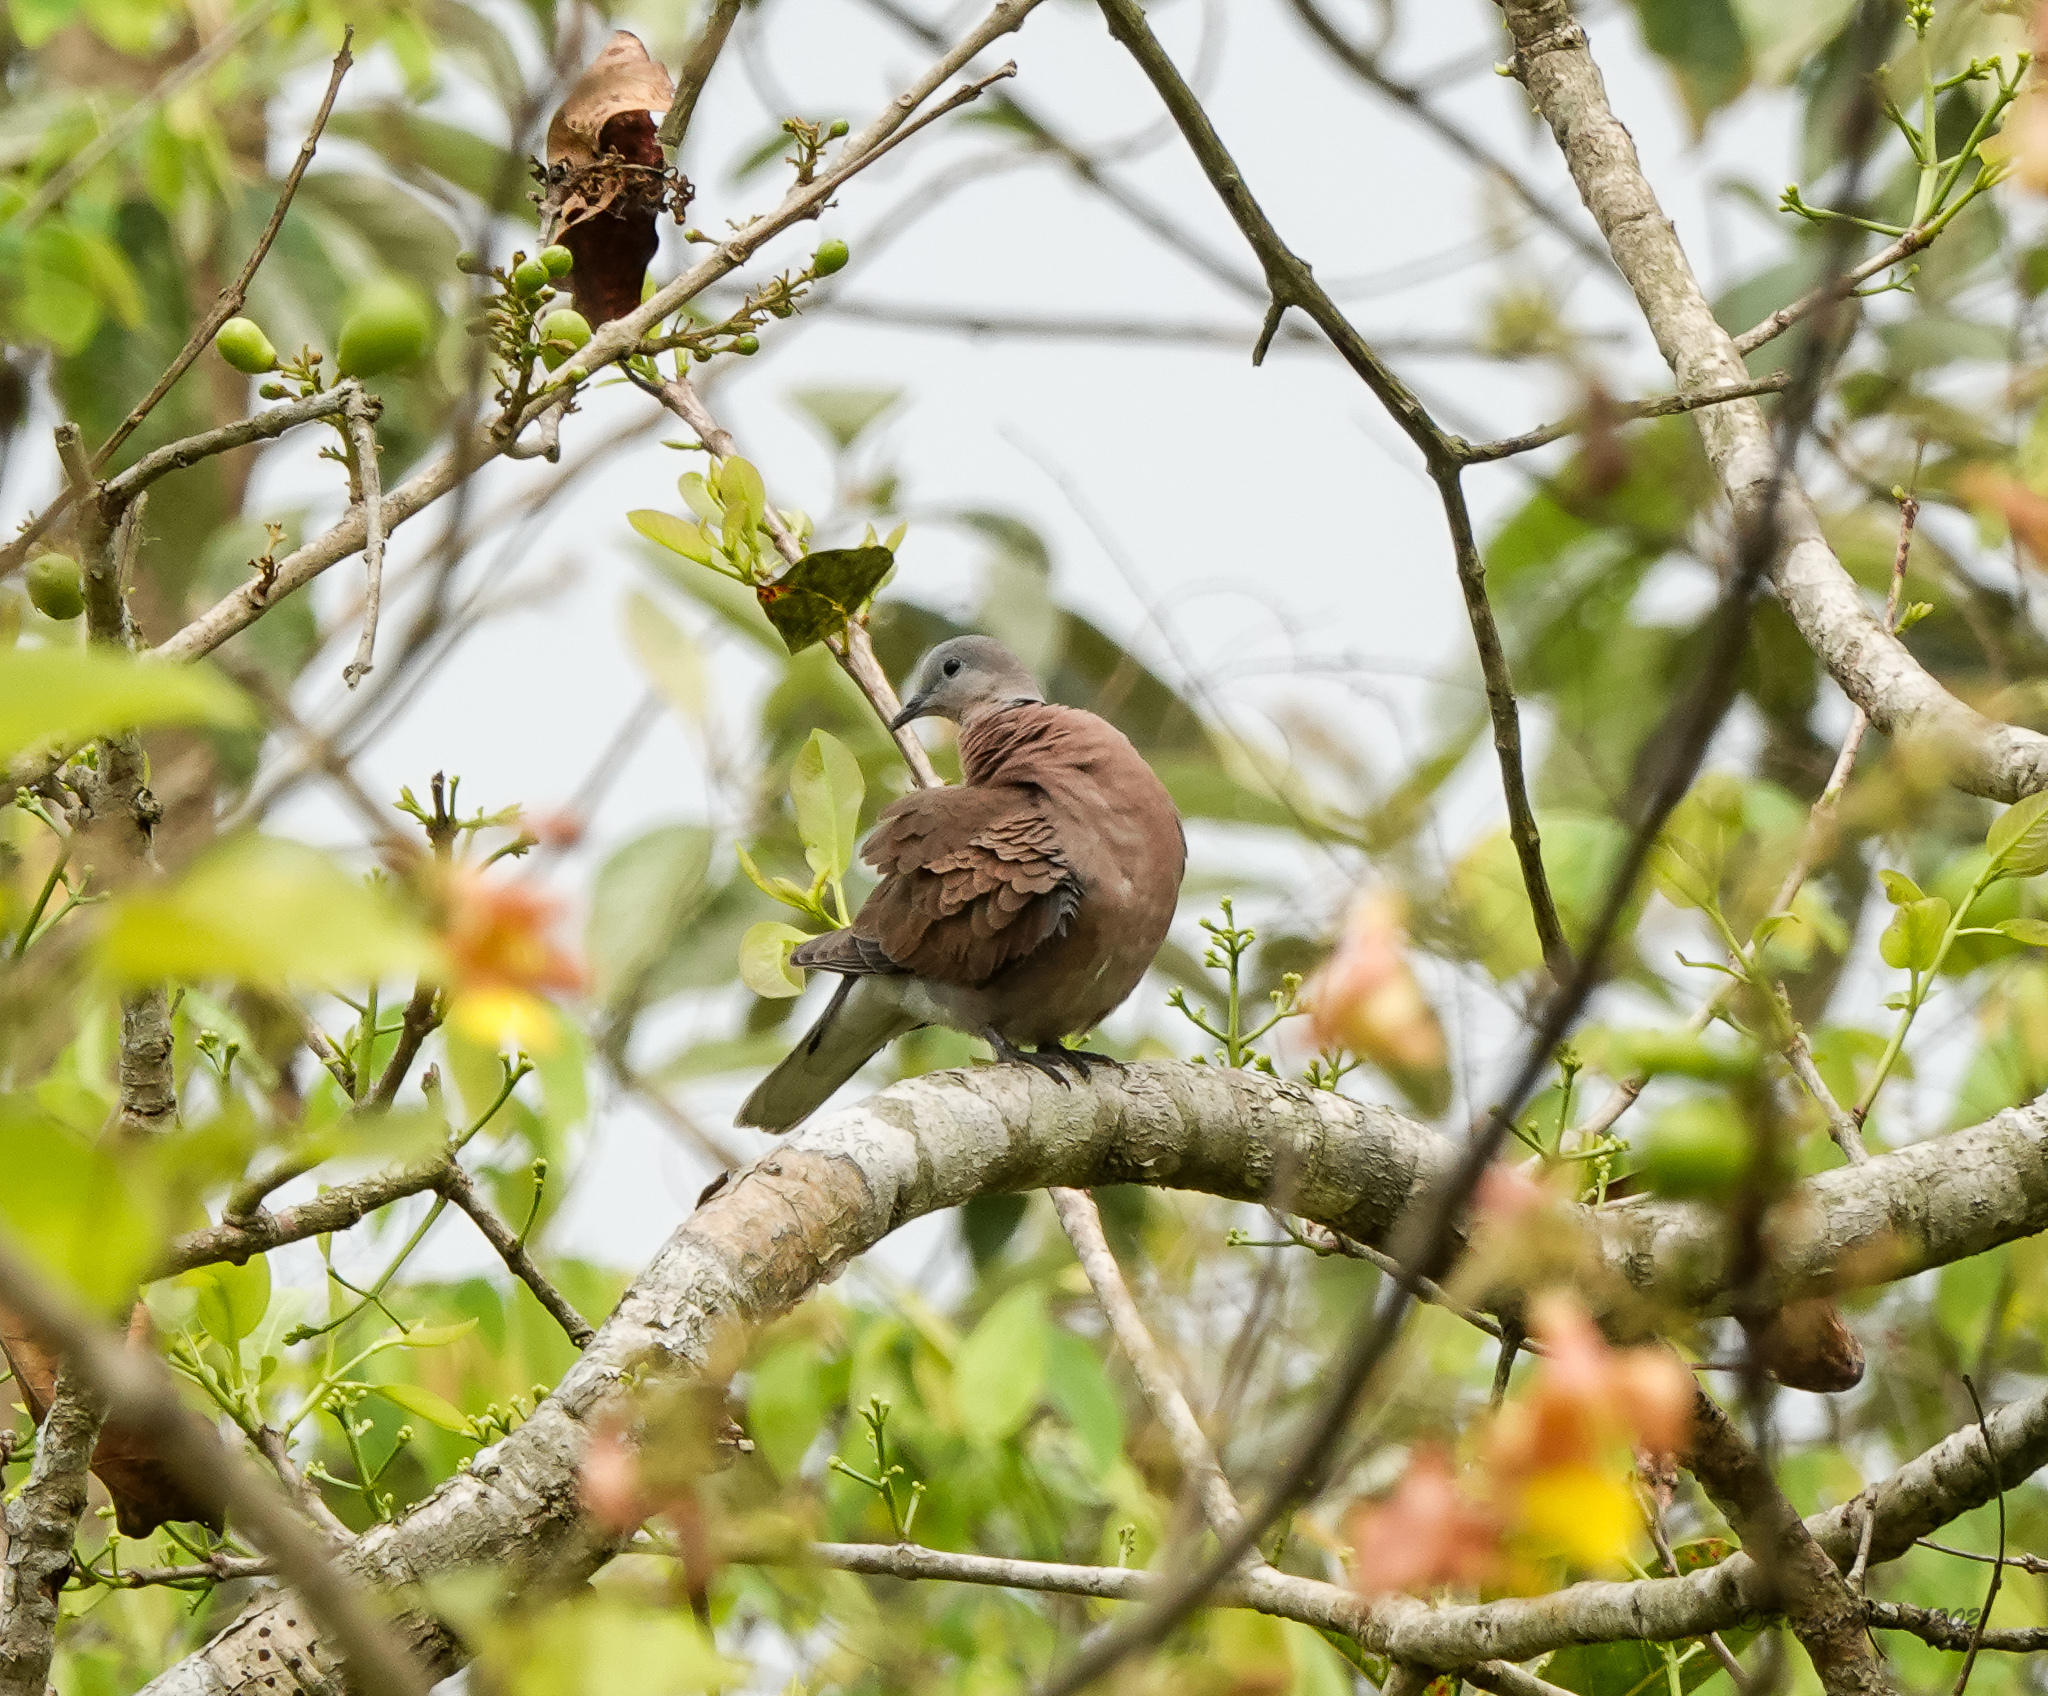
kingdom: Animalia
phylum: Chordata
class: Aves
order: Columbiformes
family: Columbidae
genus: Streptopelia
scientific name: Streptopelia tranquebarica
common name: Red turtle dove
